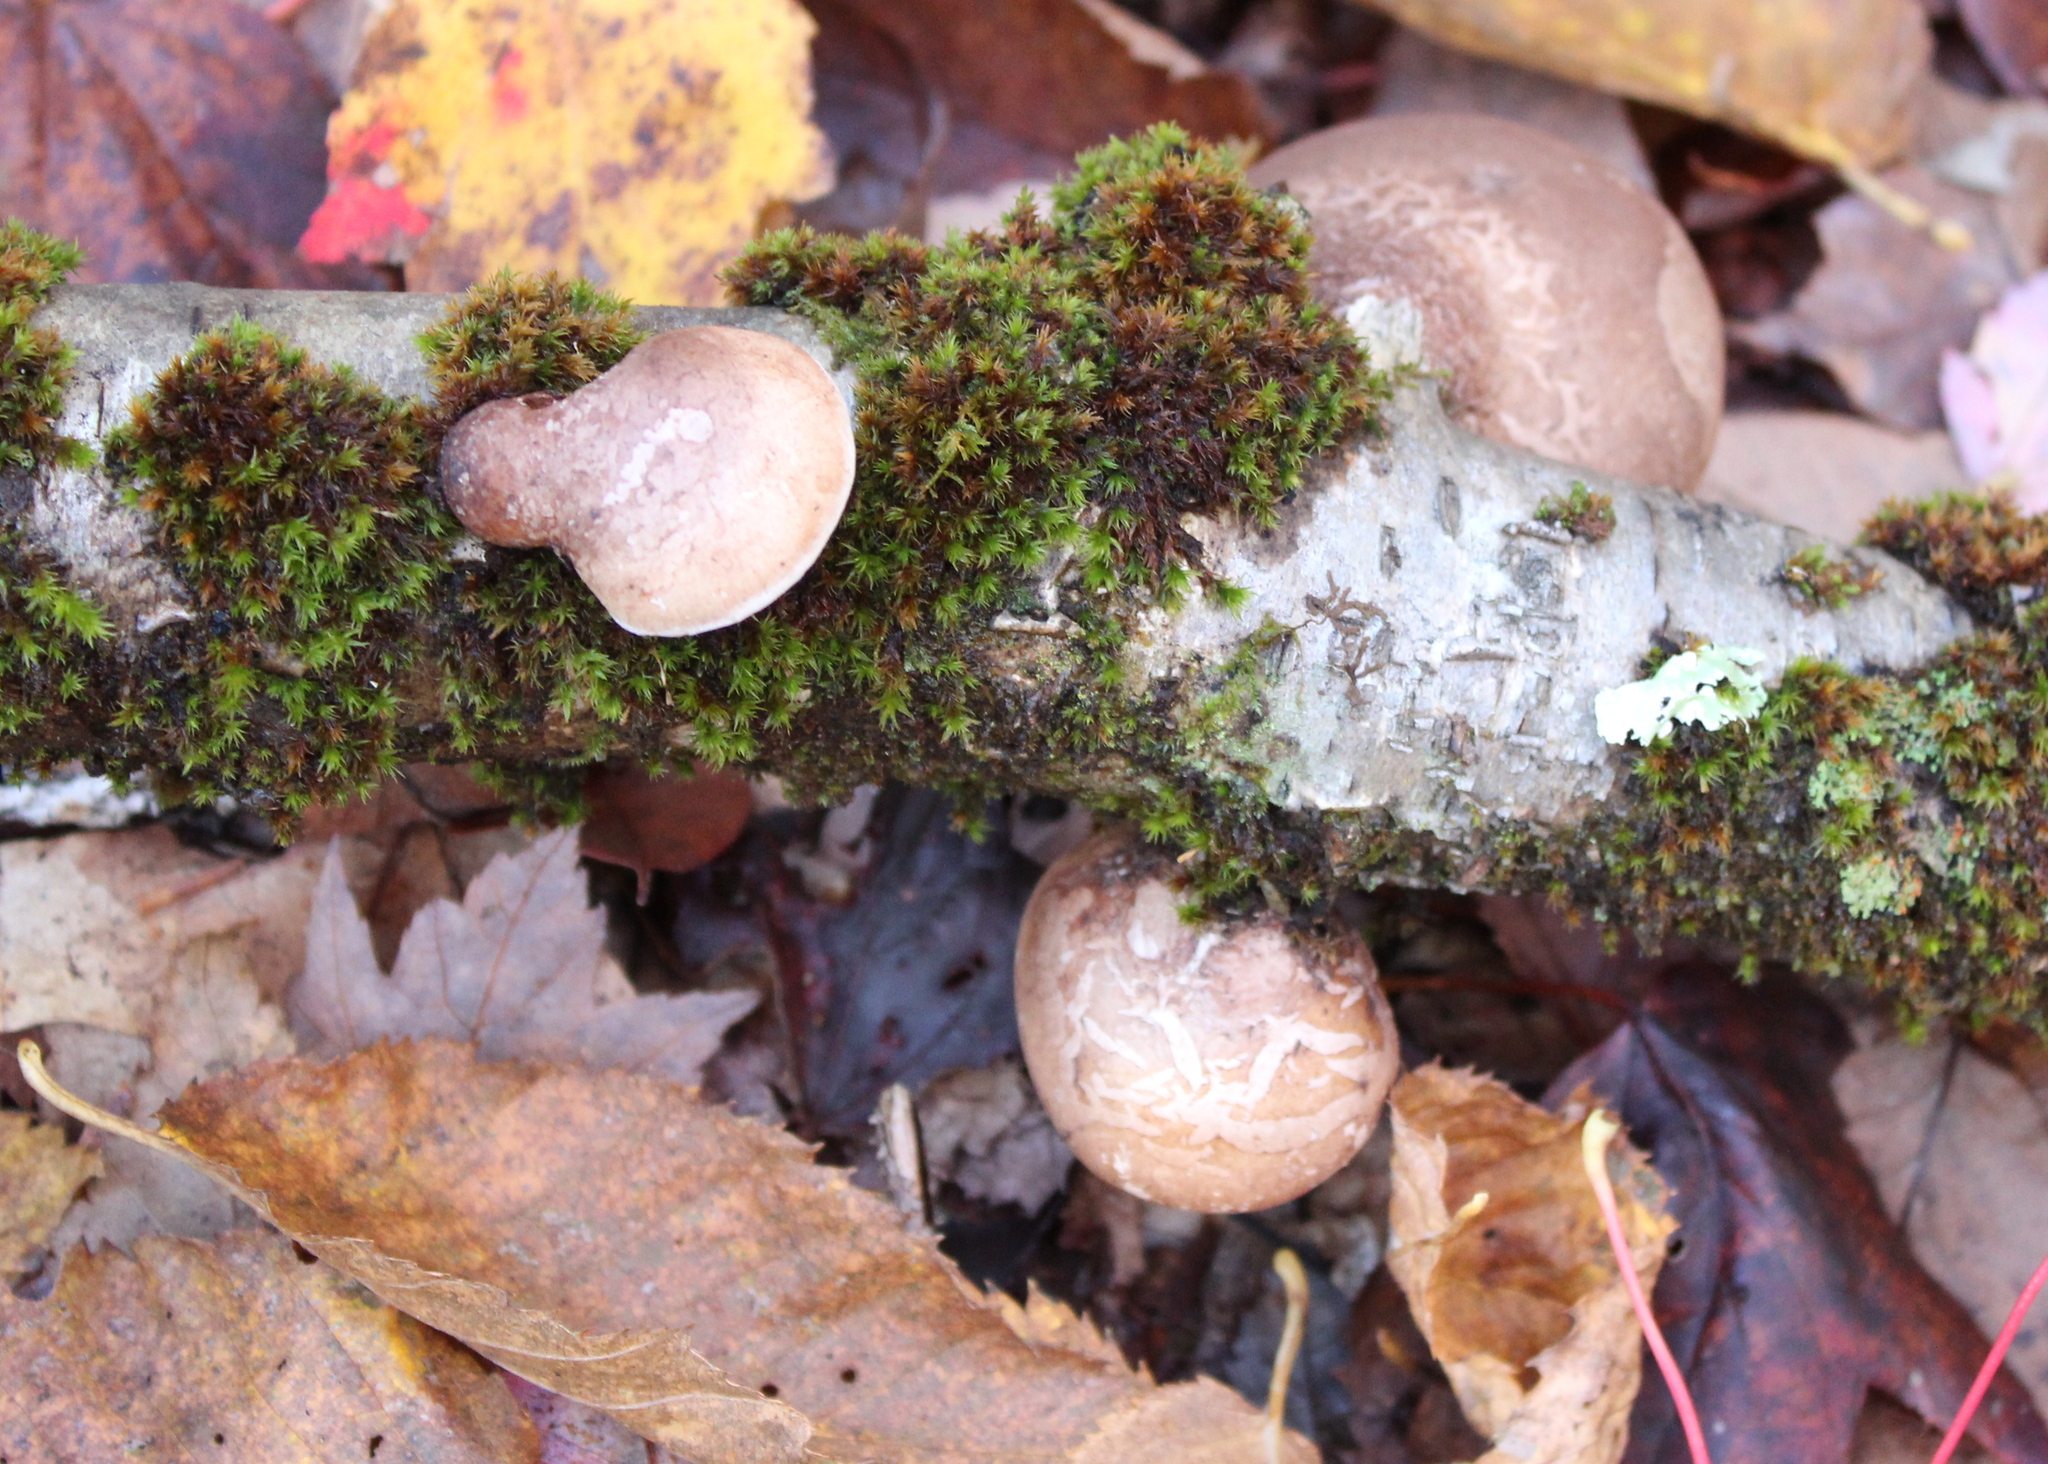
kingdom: Fungi
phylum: Basidiomycota
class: Agaricomycetes
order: Polyporales
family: Fomitopsidaceae
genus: Fomitopsis
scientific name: Fomitopsis betulina
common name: Birch polypore
